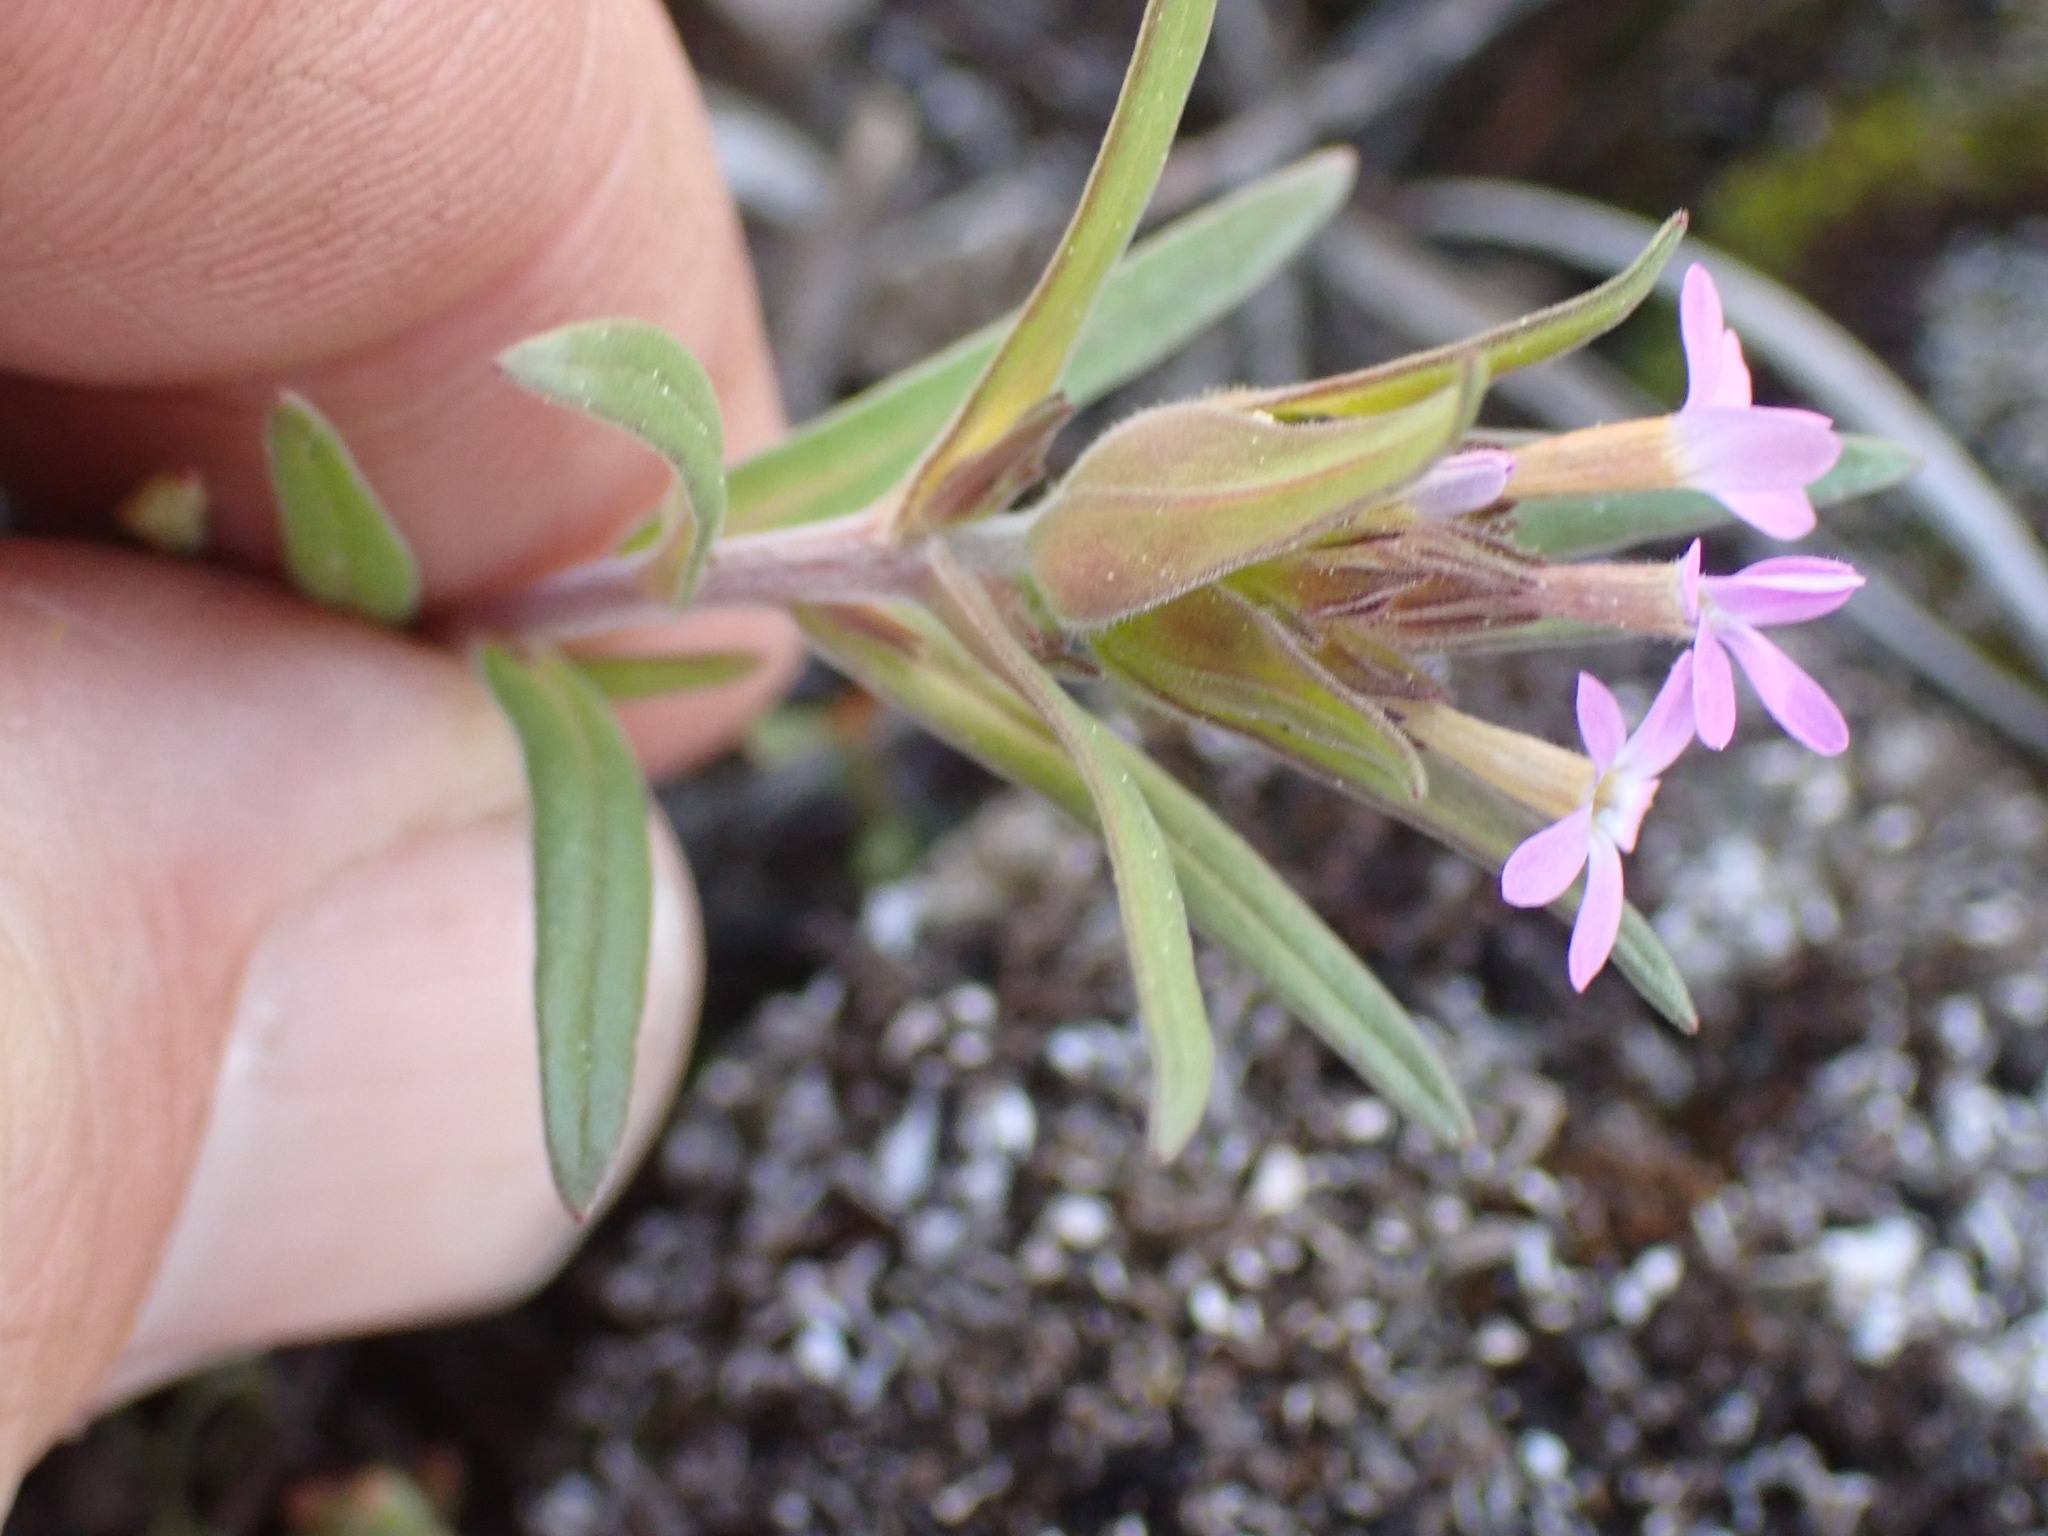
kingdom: Plantae
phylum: Tracheophyta
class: Magnoliopsida
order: Ericales
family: Polemoniaceae
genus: Collomia
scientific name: Collomia linearis
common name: Tiny trumpet
